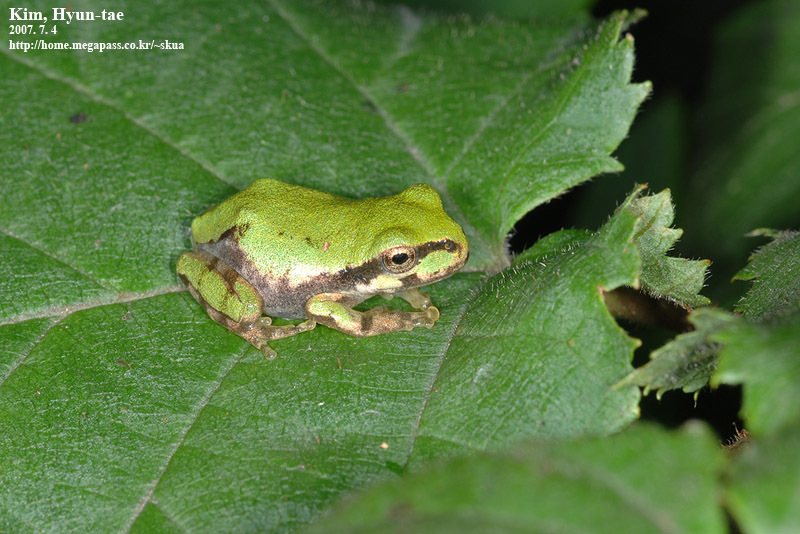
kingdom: Animalia
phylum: Chordata
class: Amphibia
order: Anura
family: Hylidae
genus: Dryophytes
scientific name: Dryophytes japonicus
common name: Japanese treefrog
